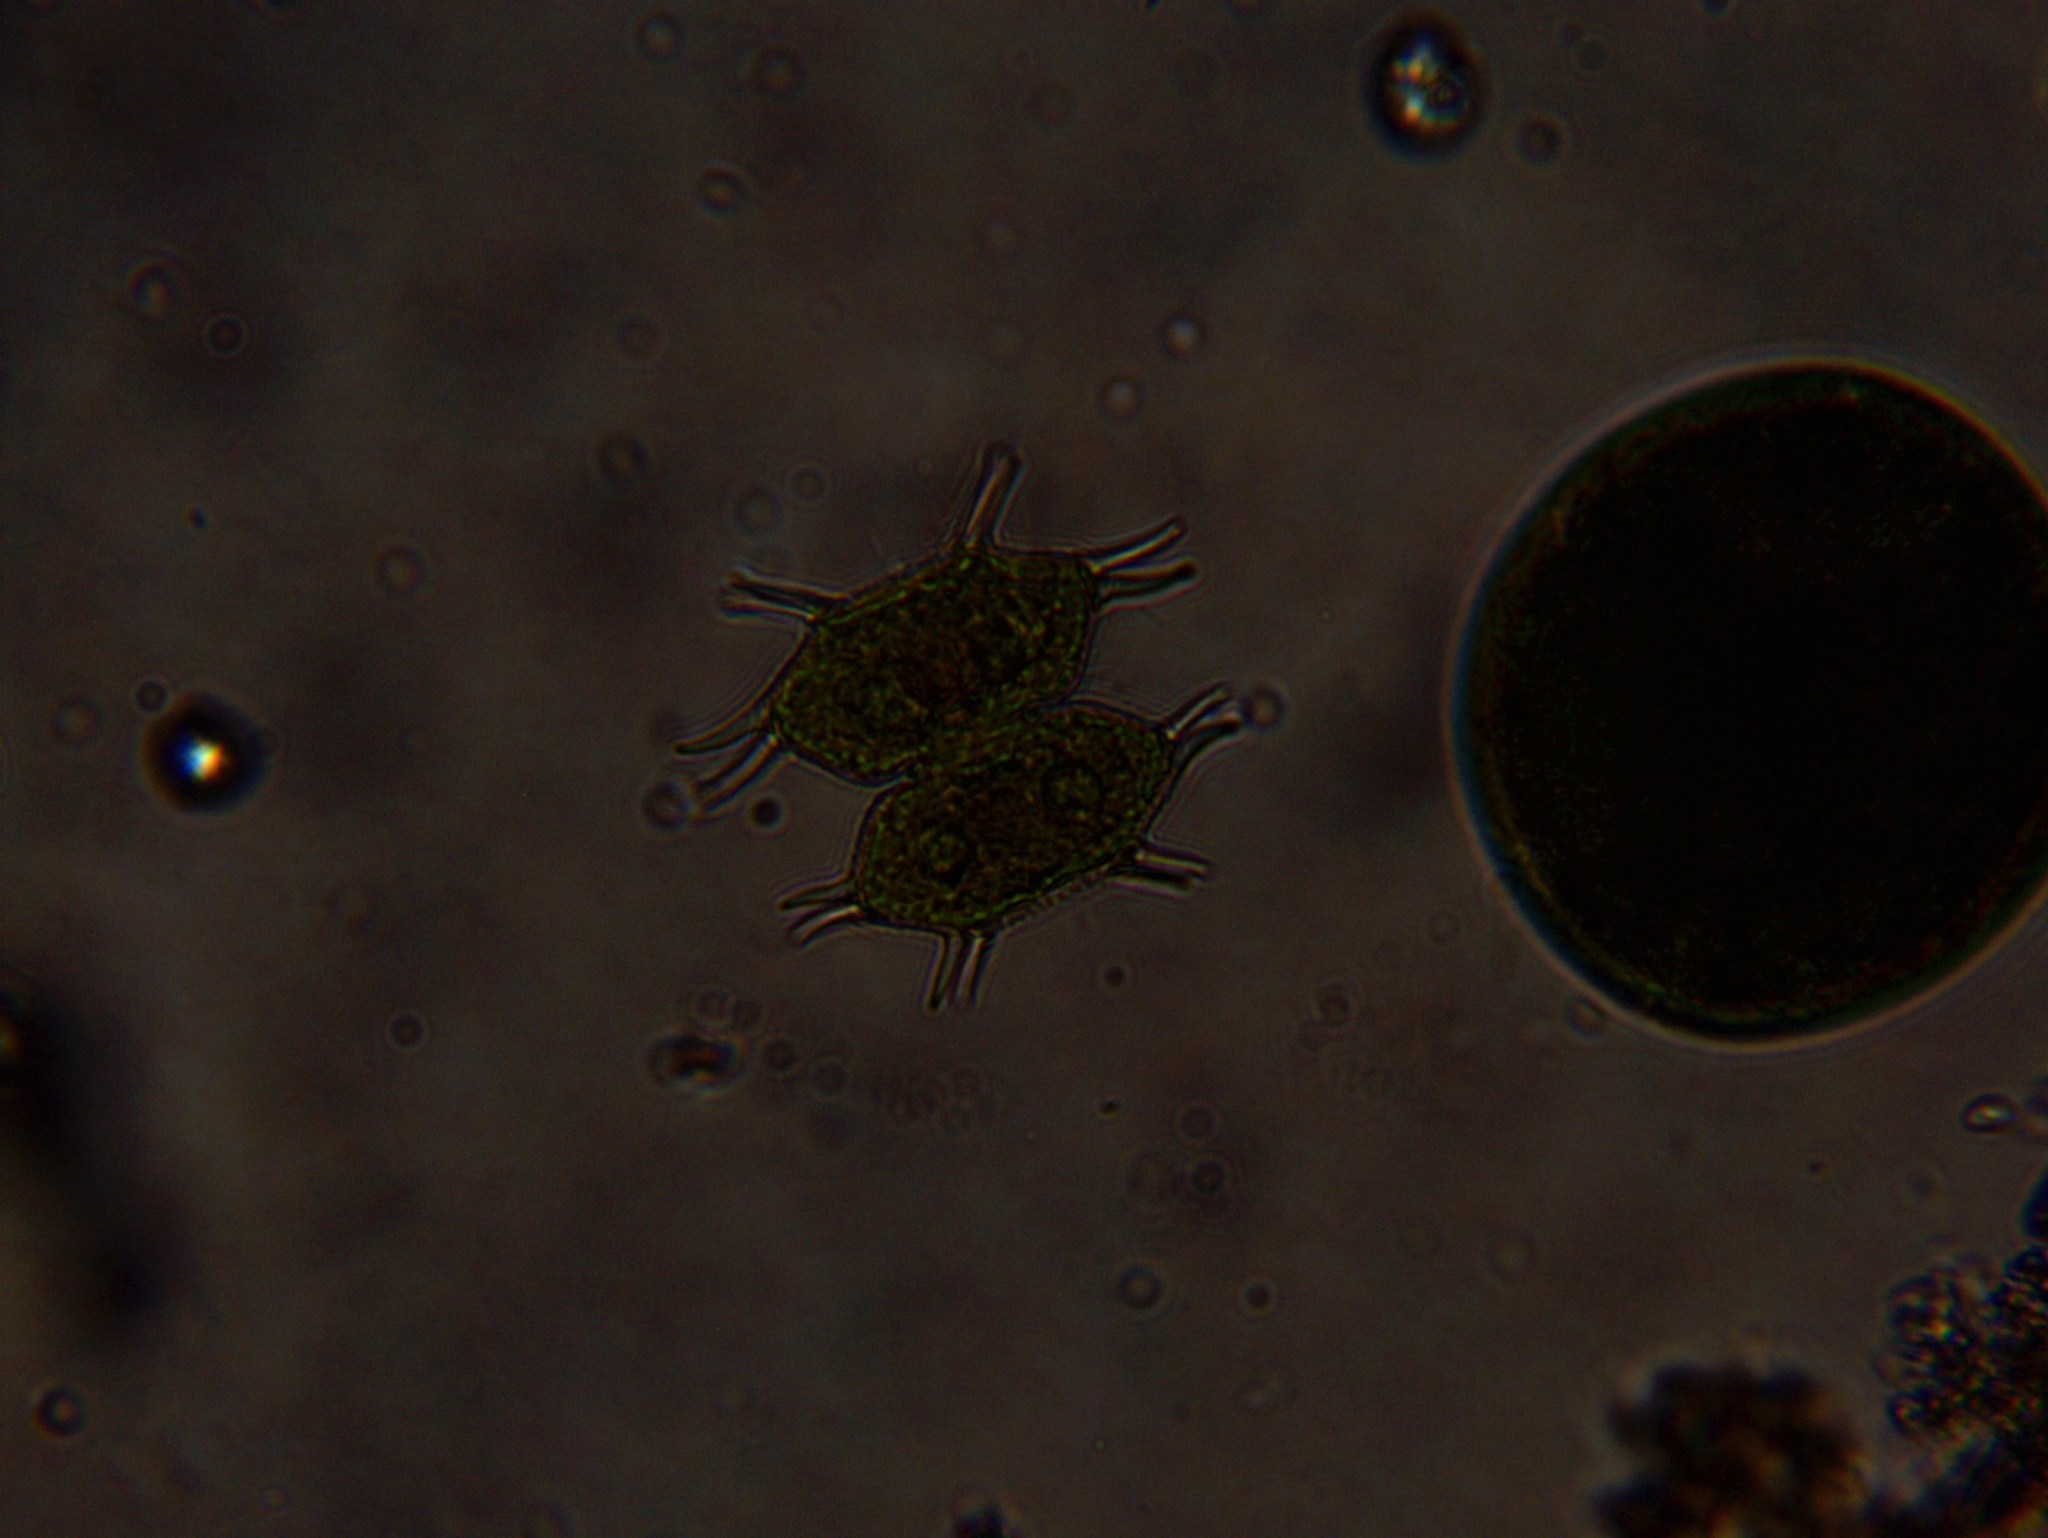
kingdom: Plantae
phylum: Charophyta
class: Conjugatophyceae
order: Desmidiales
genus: Xanthidium
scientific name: Xanthidium antilopaeum
